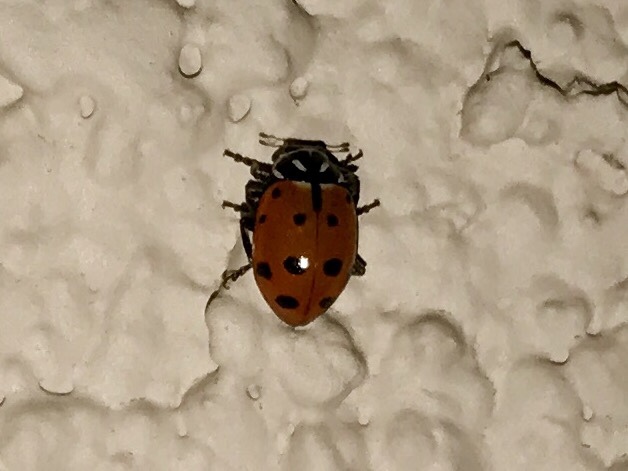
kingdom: Animalia
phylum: Arthropoda
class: Insecta
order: Coleoptera
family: Coccinellidae
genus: Hippodamia
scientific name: Hippodamia convergens
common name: Convergent lady beetle
